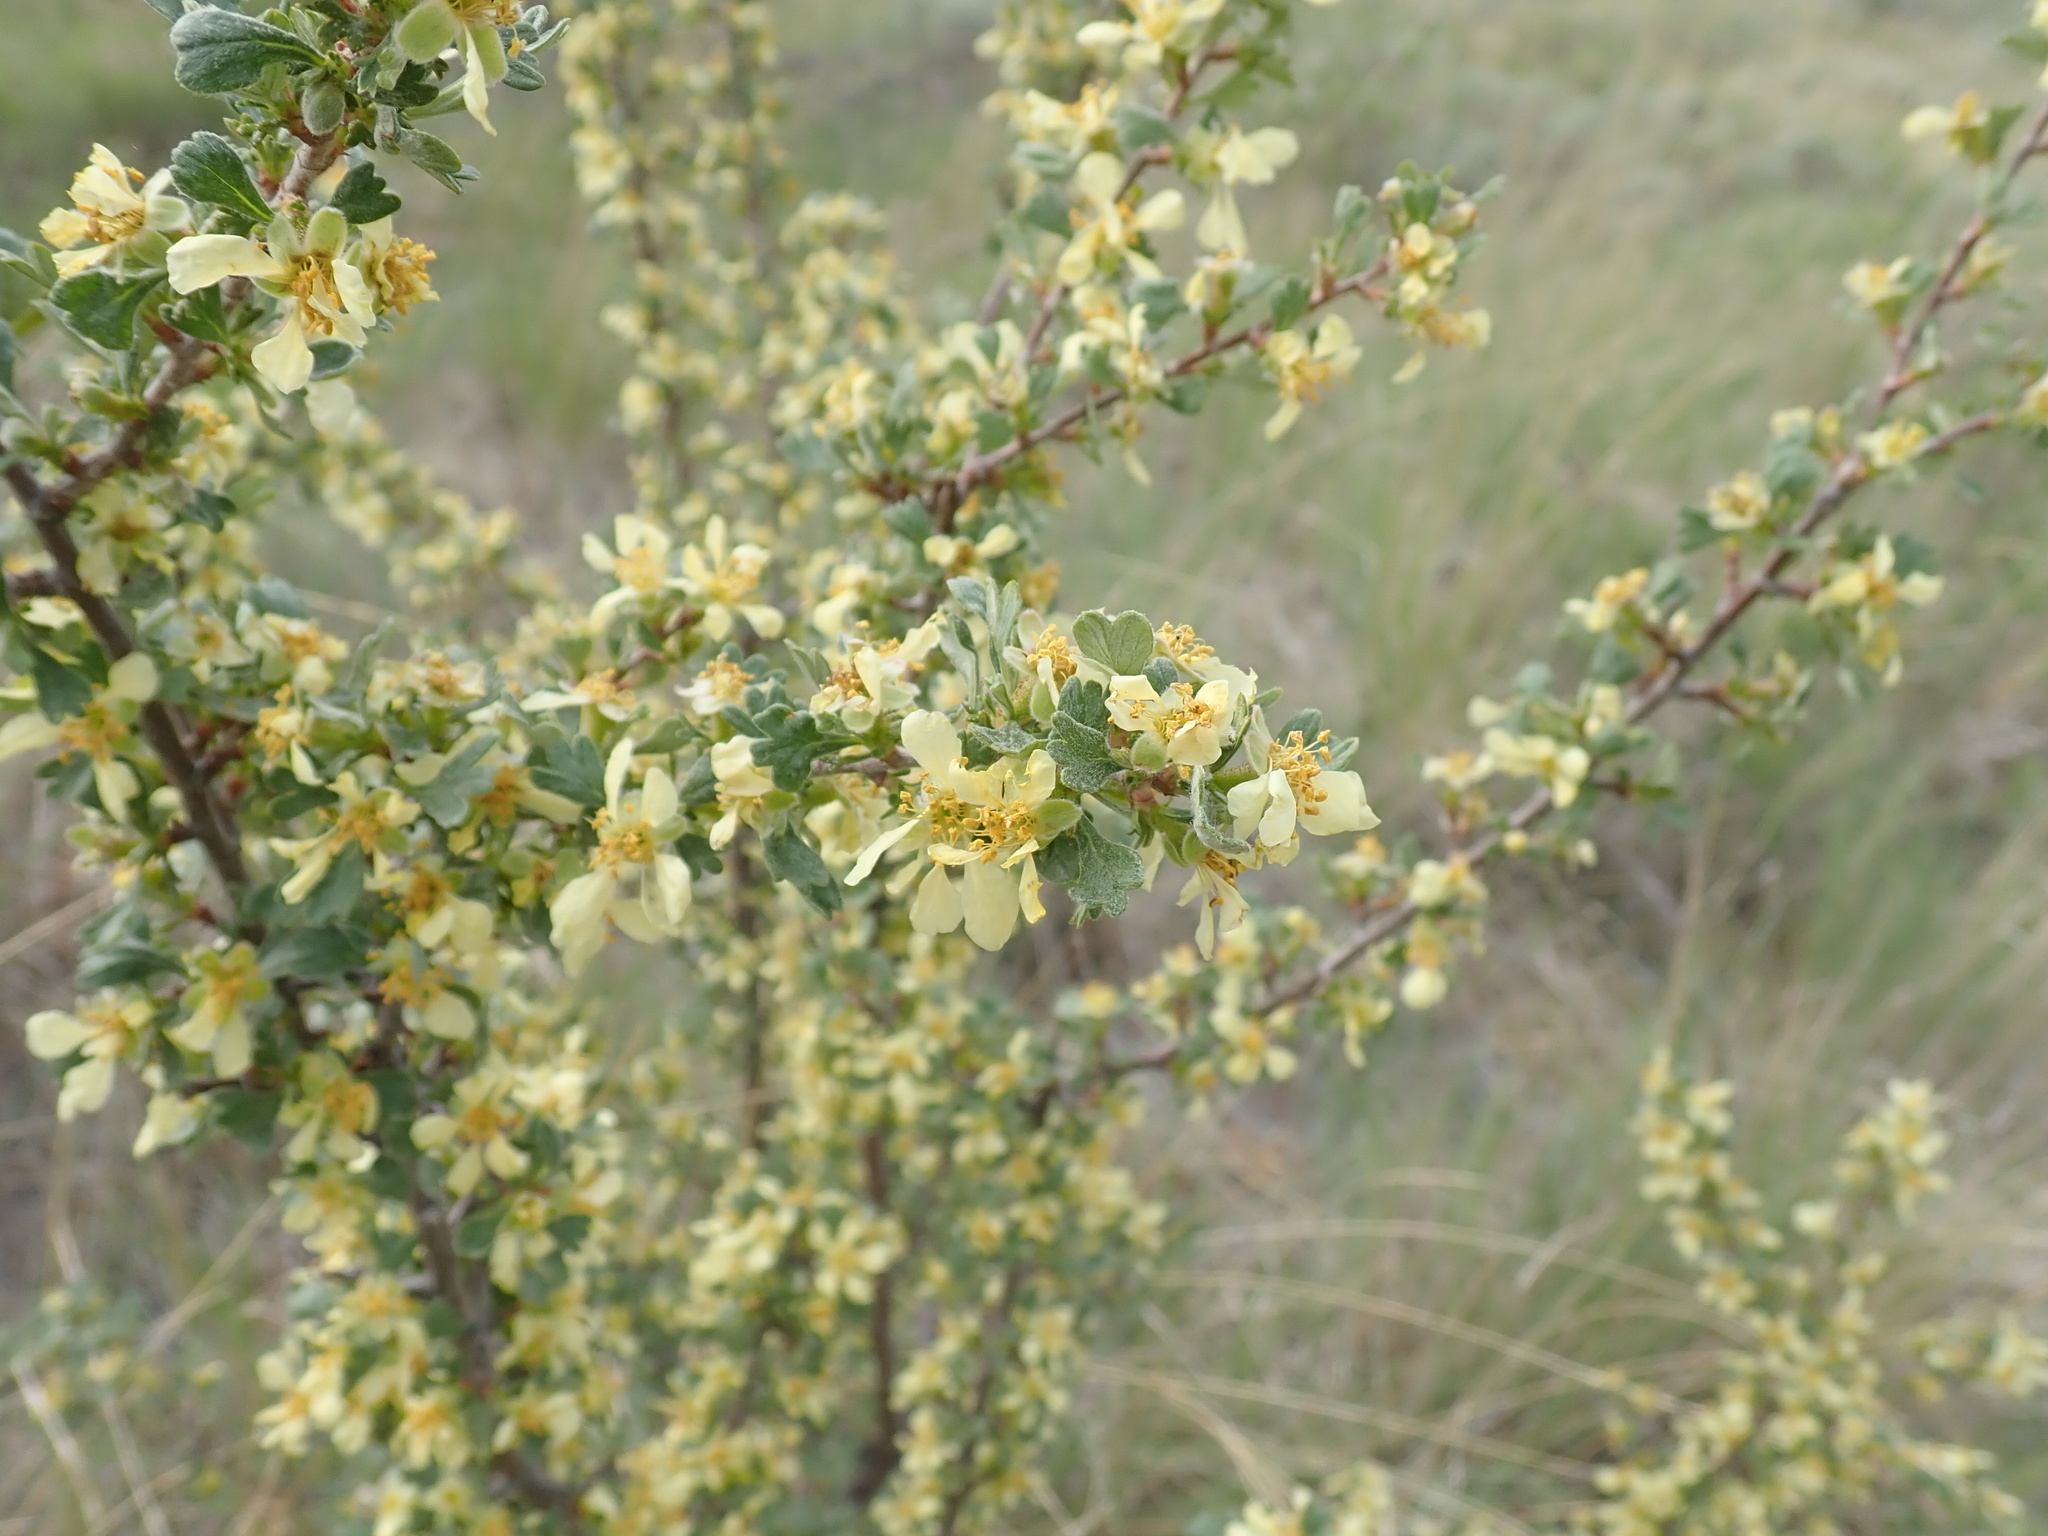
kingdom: Plantae
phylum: Tracheophyta
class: Magnoliopsida
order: Rosales
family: Rosaceae
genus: Purshia
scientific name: Purshia tridentata
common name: Antelope bitterbrush
